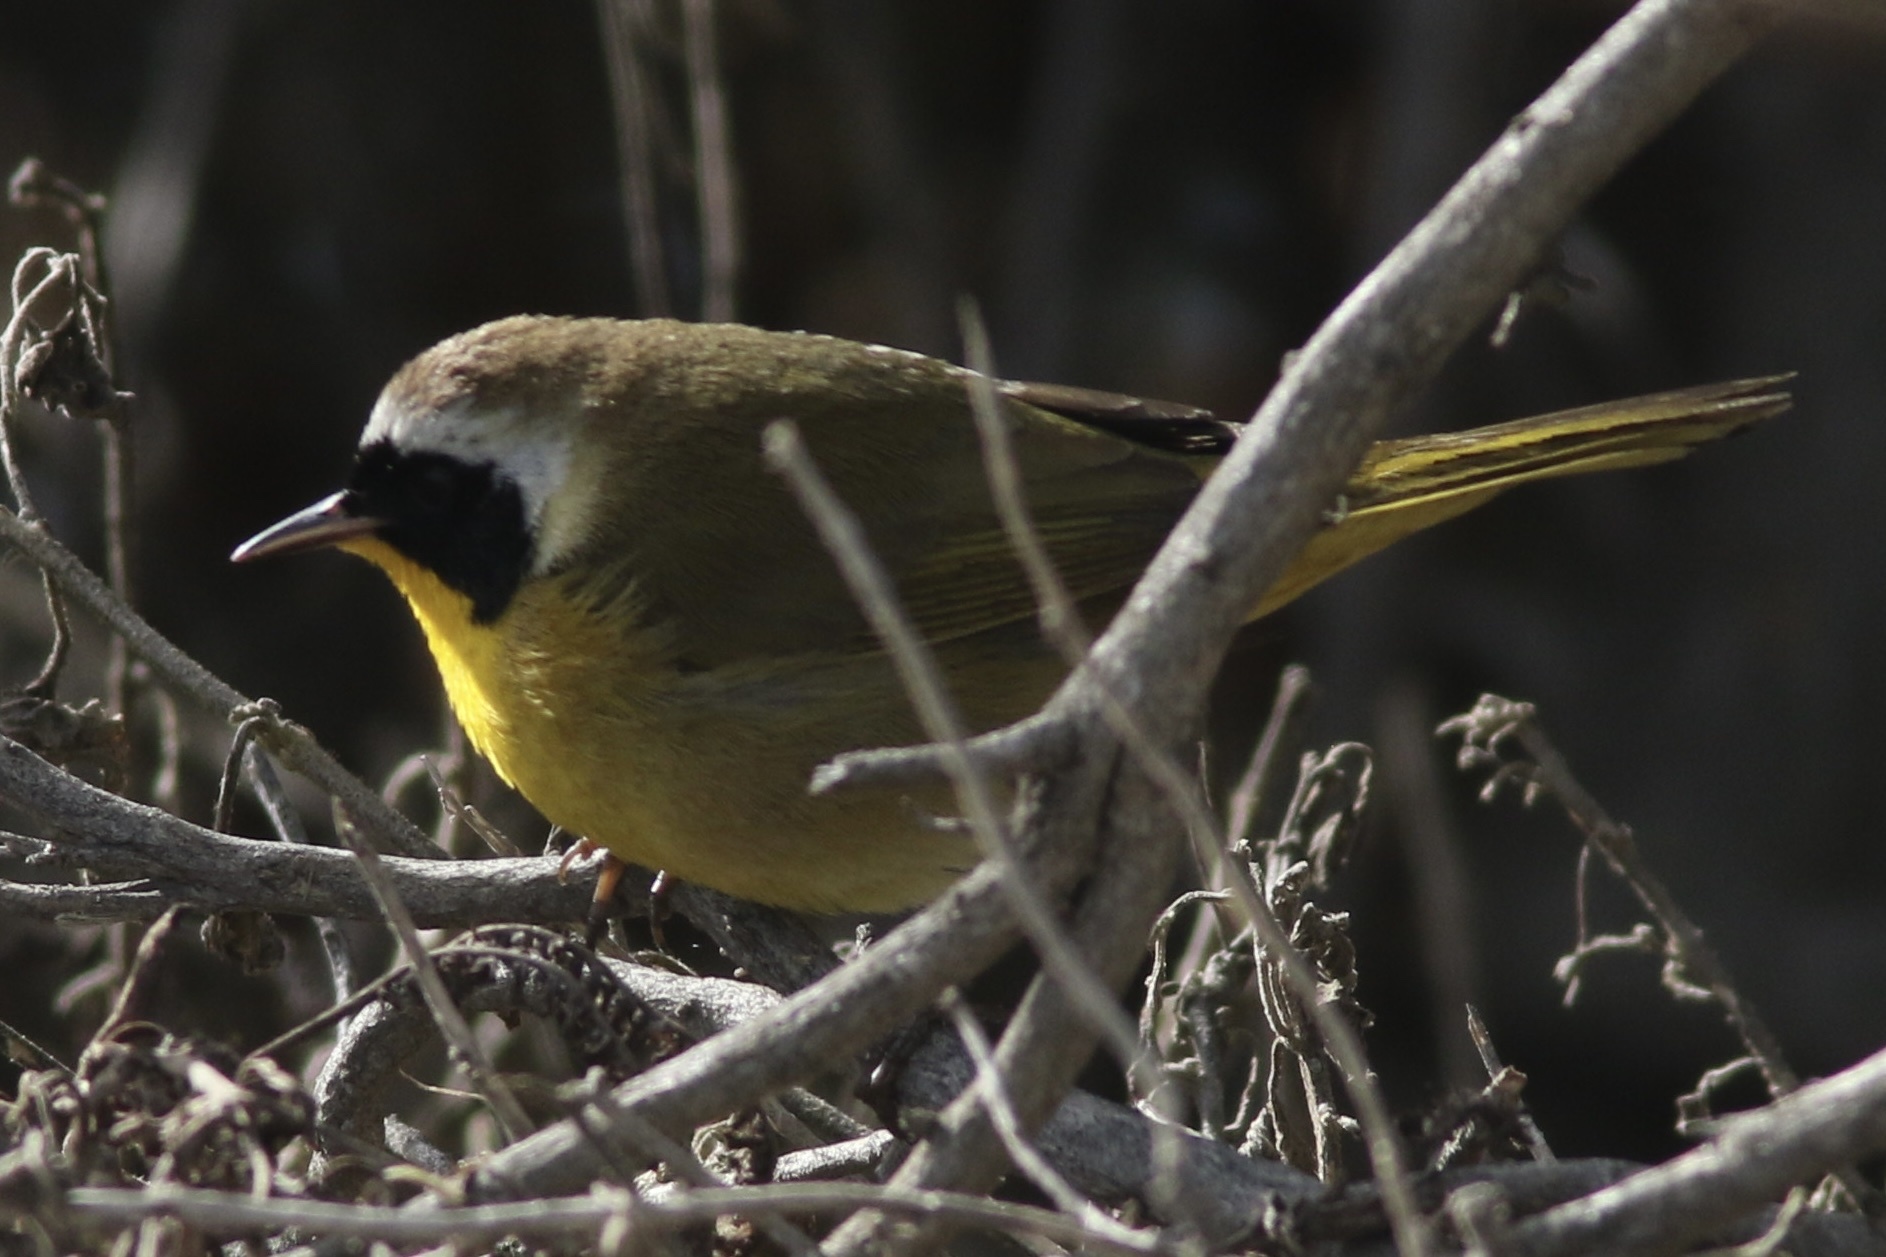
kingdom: Animalia
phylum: Chordata
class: Aves
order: Passeriformes
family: Parulidae
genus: Geothlypis
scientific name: Geothlypis trichas
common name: Common yellowthroat
